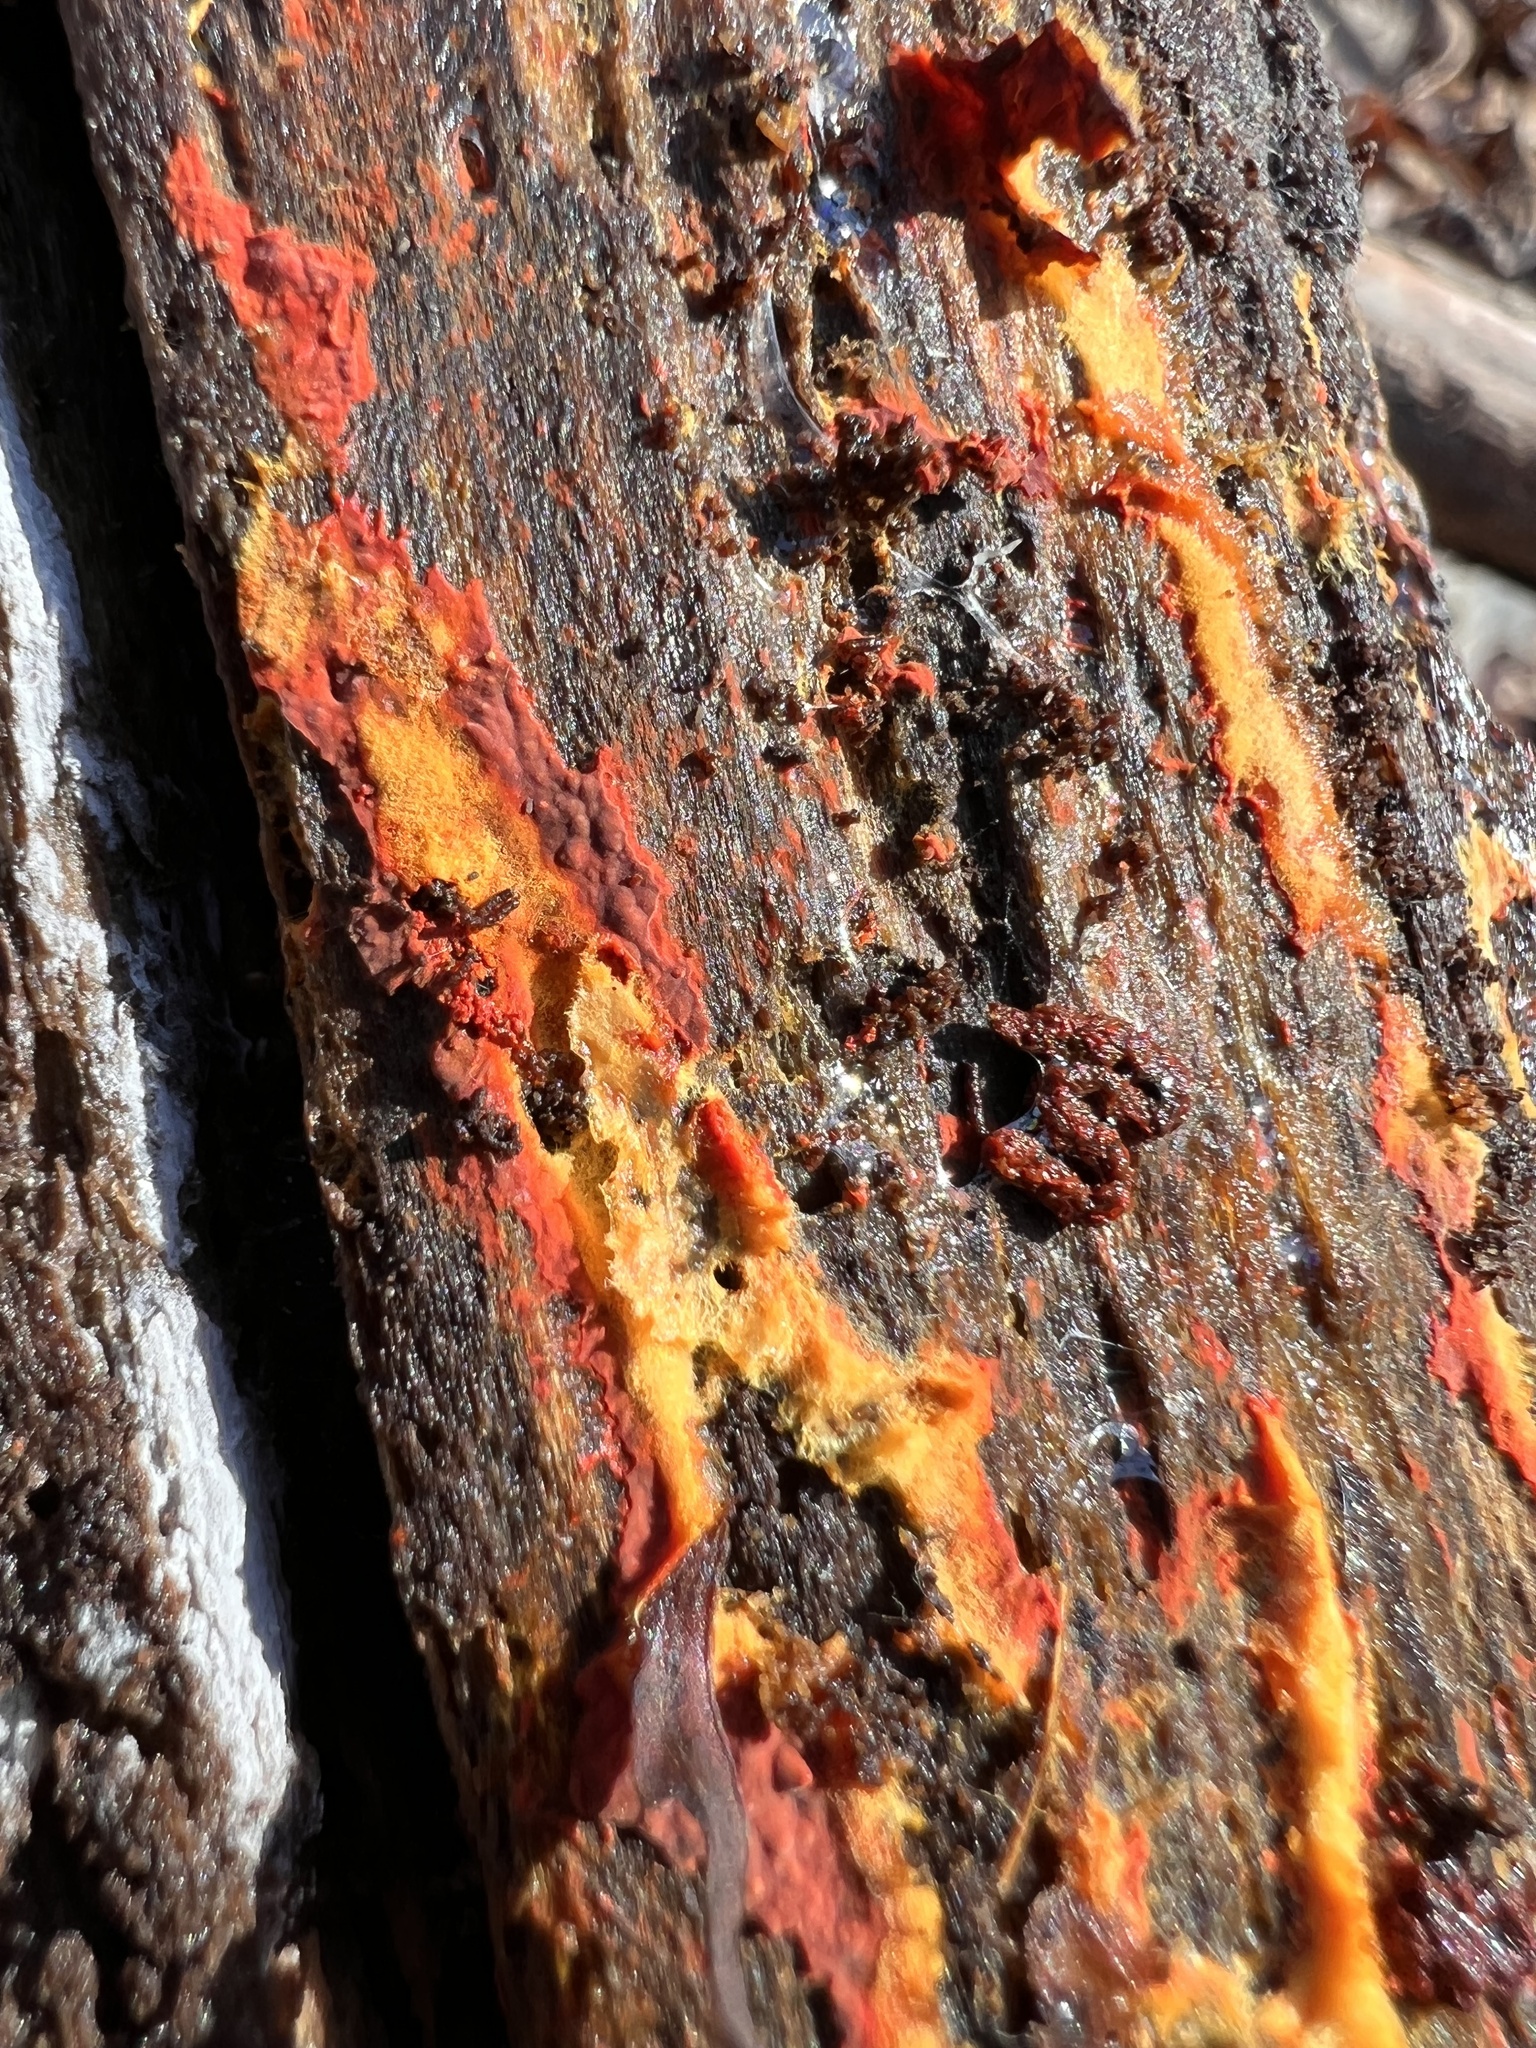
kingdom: Fungi
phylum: Basidiomycota
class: Agaricomycetes
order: Polyporales
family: Meruliaceae
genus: Phlebia
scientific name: Phlebia coccineofulva
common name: Scarlet waxcrust
